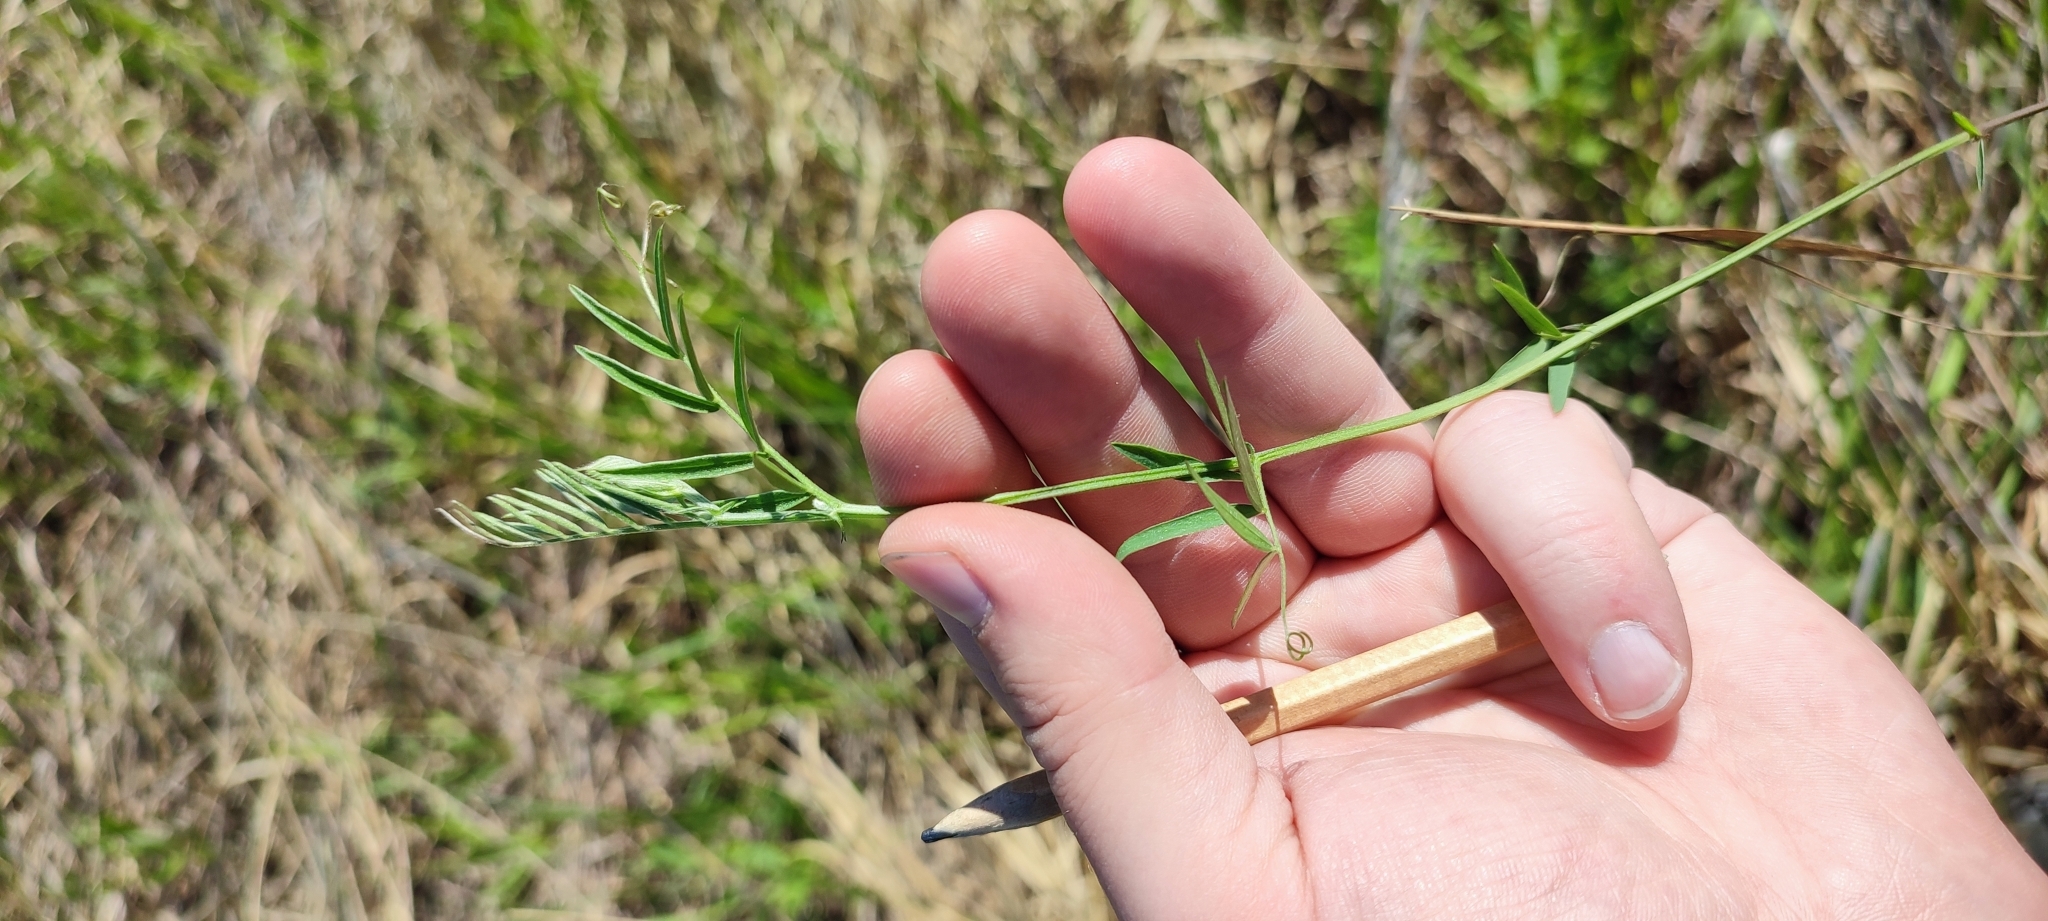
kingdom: Plantae
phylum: Tracheophyta
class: Magnoliopsida
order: Fabales
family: Fabaceae
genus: Vicia
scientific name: Vicia cracca
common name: Bird vetch
